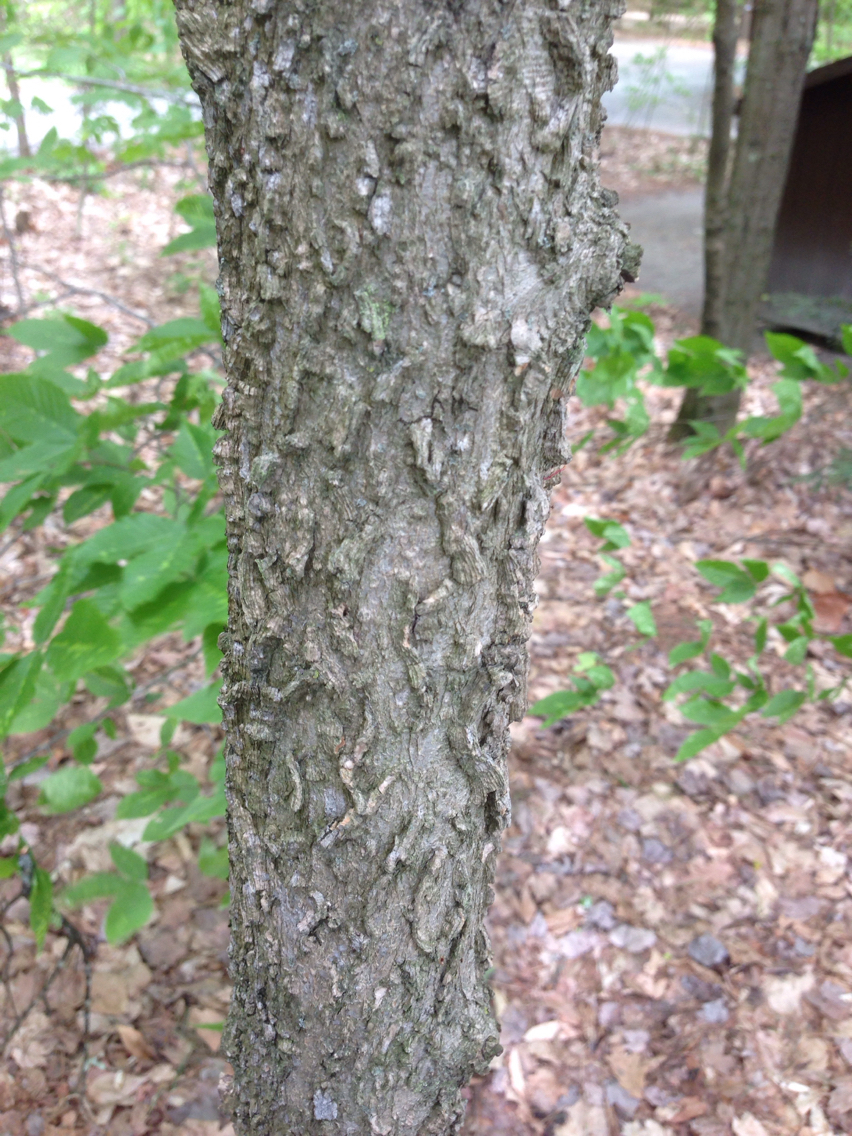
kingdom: Plantae
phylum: Tracheophyta
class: Magnoliopsida
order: Rosales
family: Cannabaceae
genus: Celtis
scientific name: Celtis occidentalis
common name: Common hackberry
